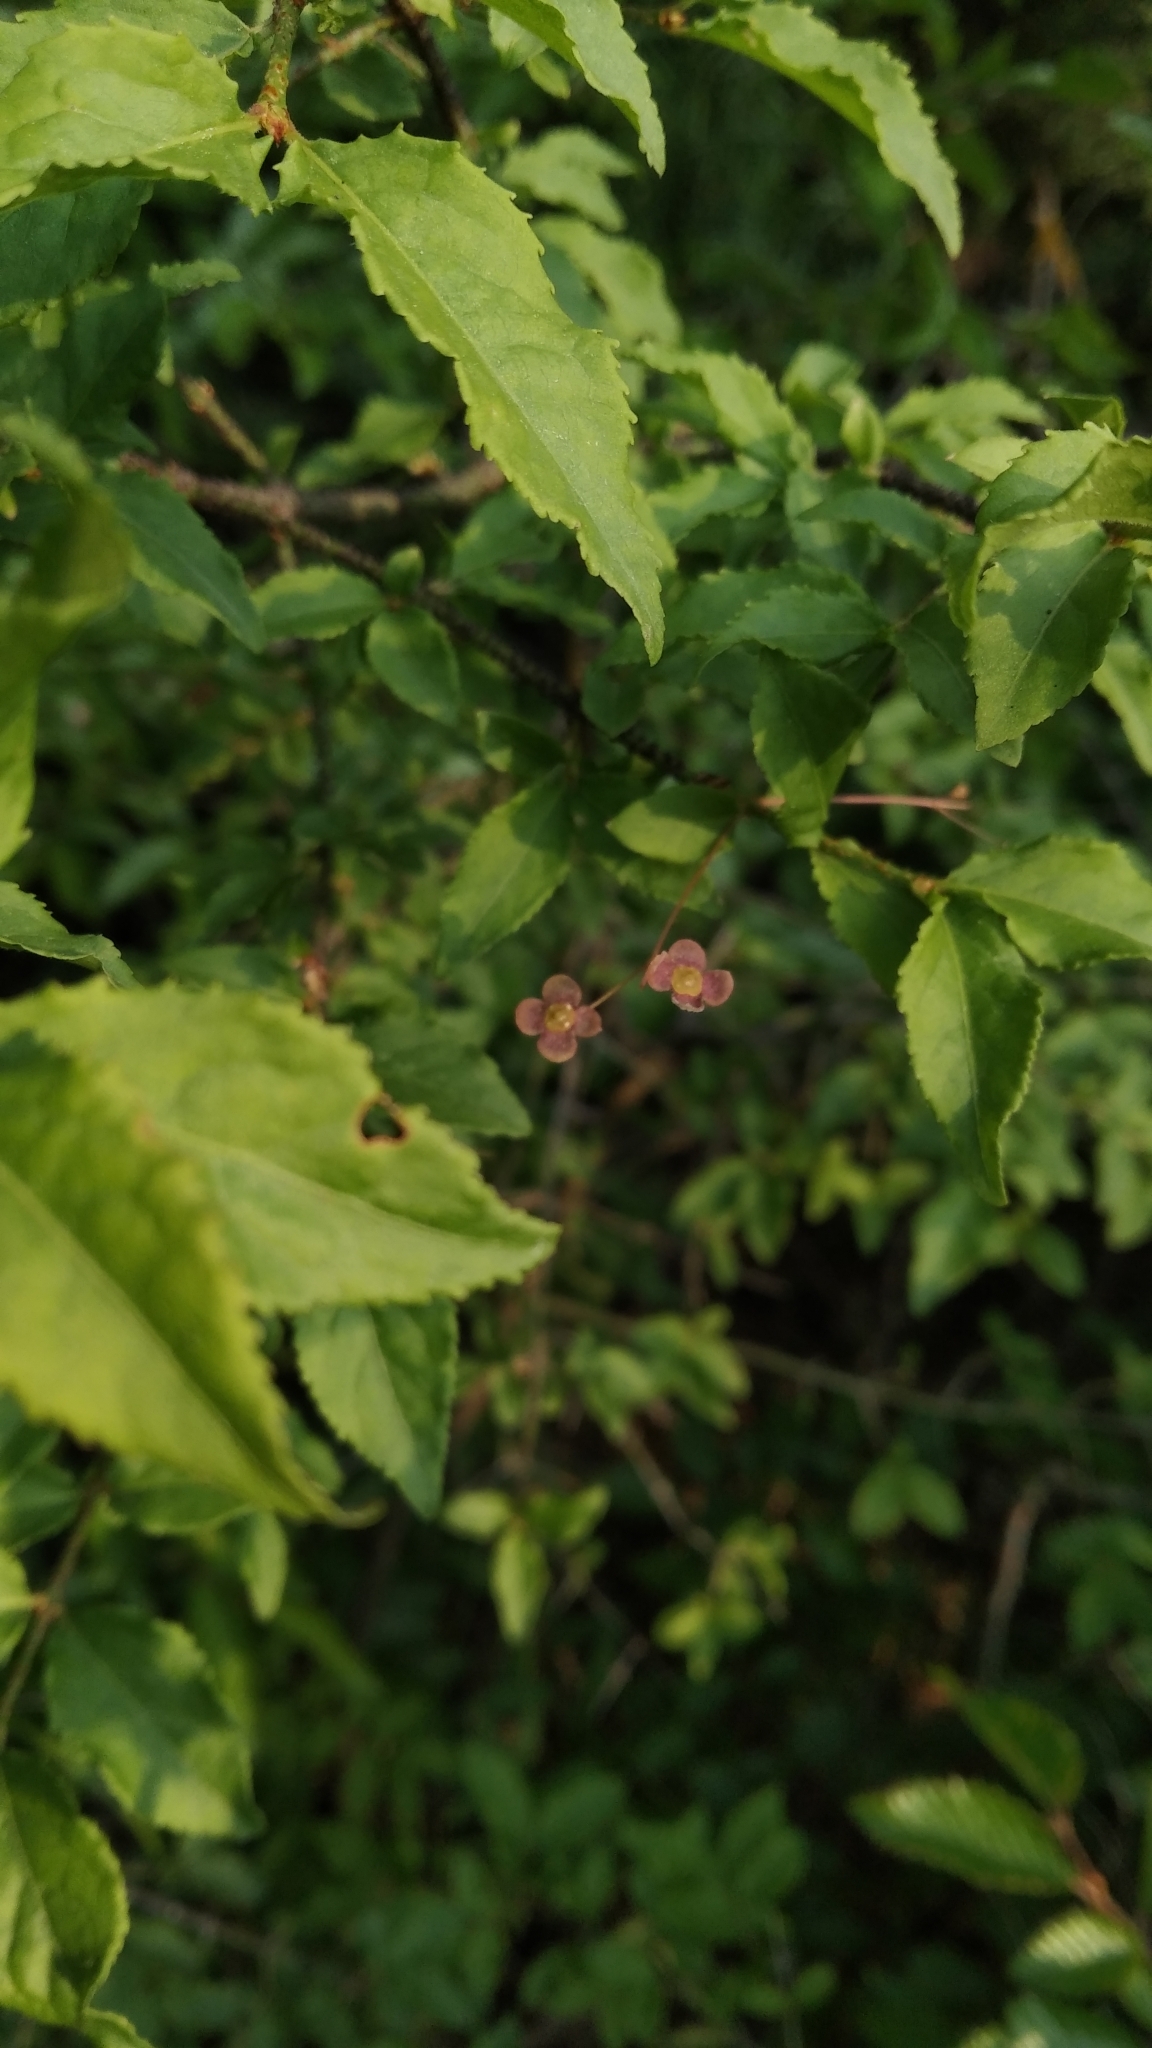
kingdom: Plantae
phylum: Tracheophyta
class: Magnoliopsida
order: Celastrales
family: Celastraceae
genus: Euonymus
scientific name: Euonymus verrucosus
